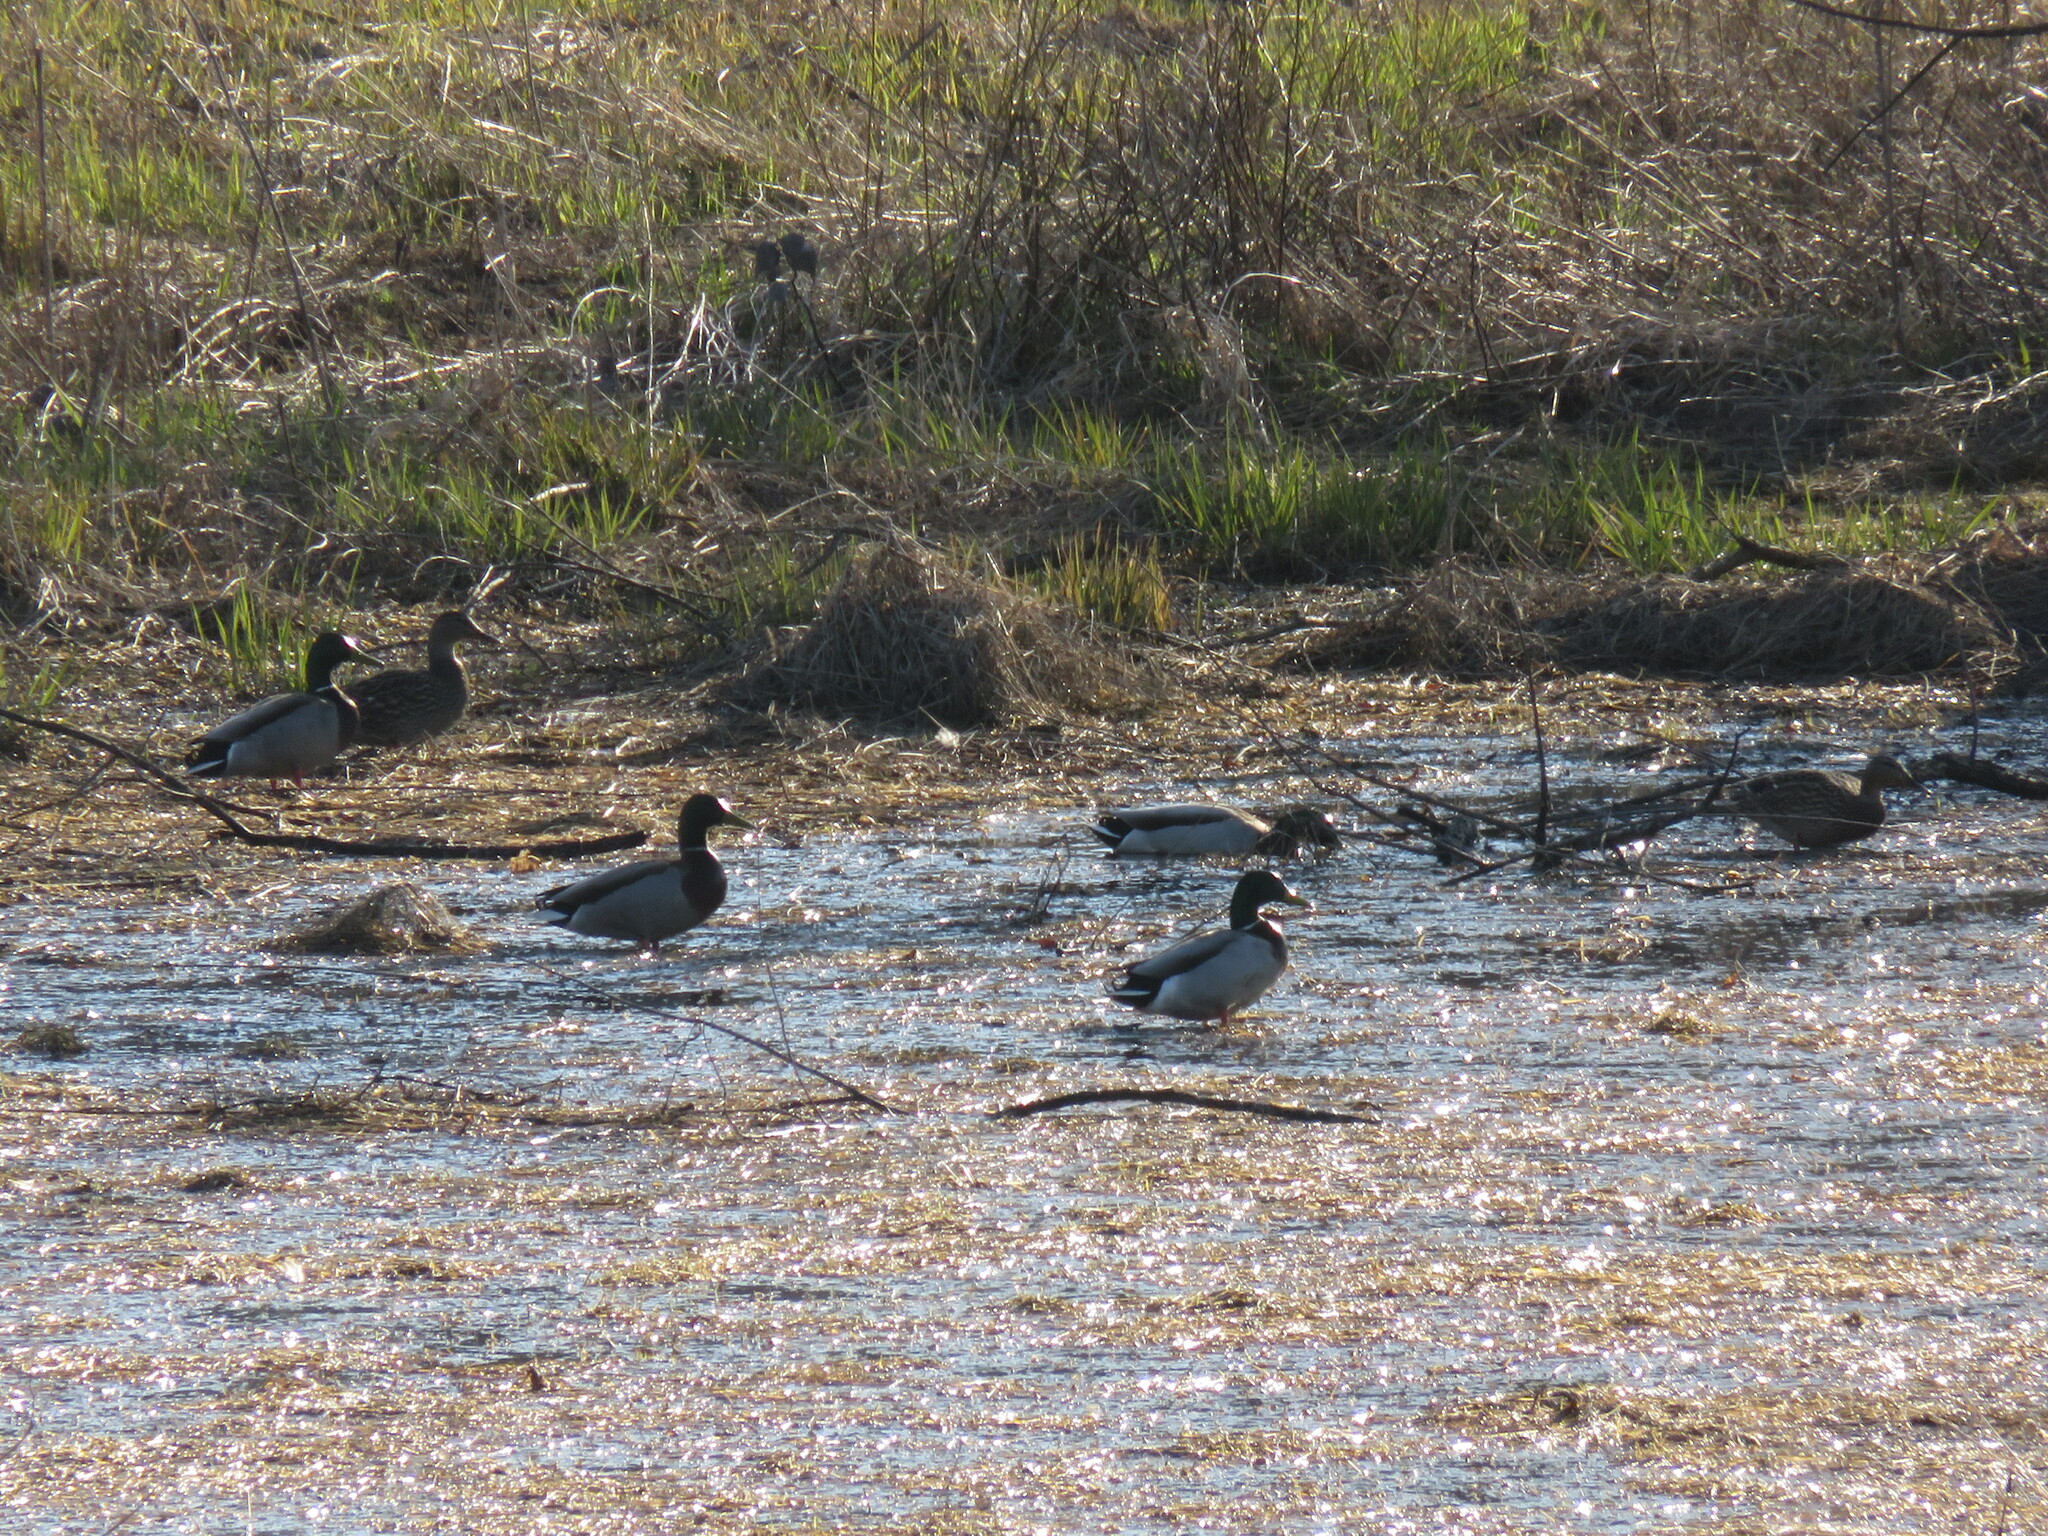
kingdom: Animalia
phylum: Chordata
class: Aves
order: Anseriformes
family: Anatidae
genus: Anas
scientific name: Anas platyrhynchos
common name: Mallard
